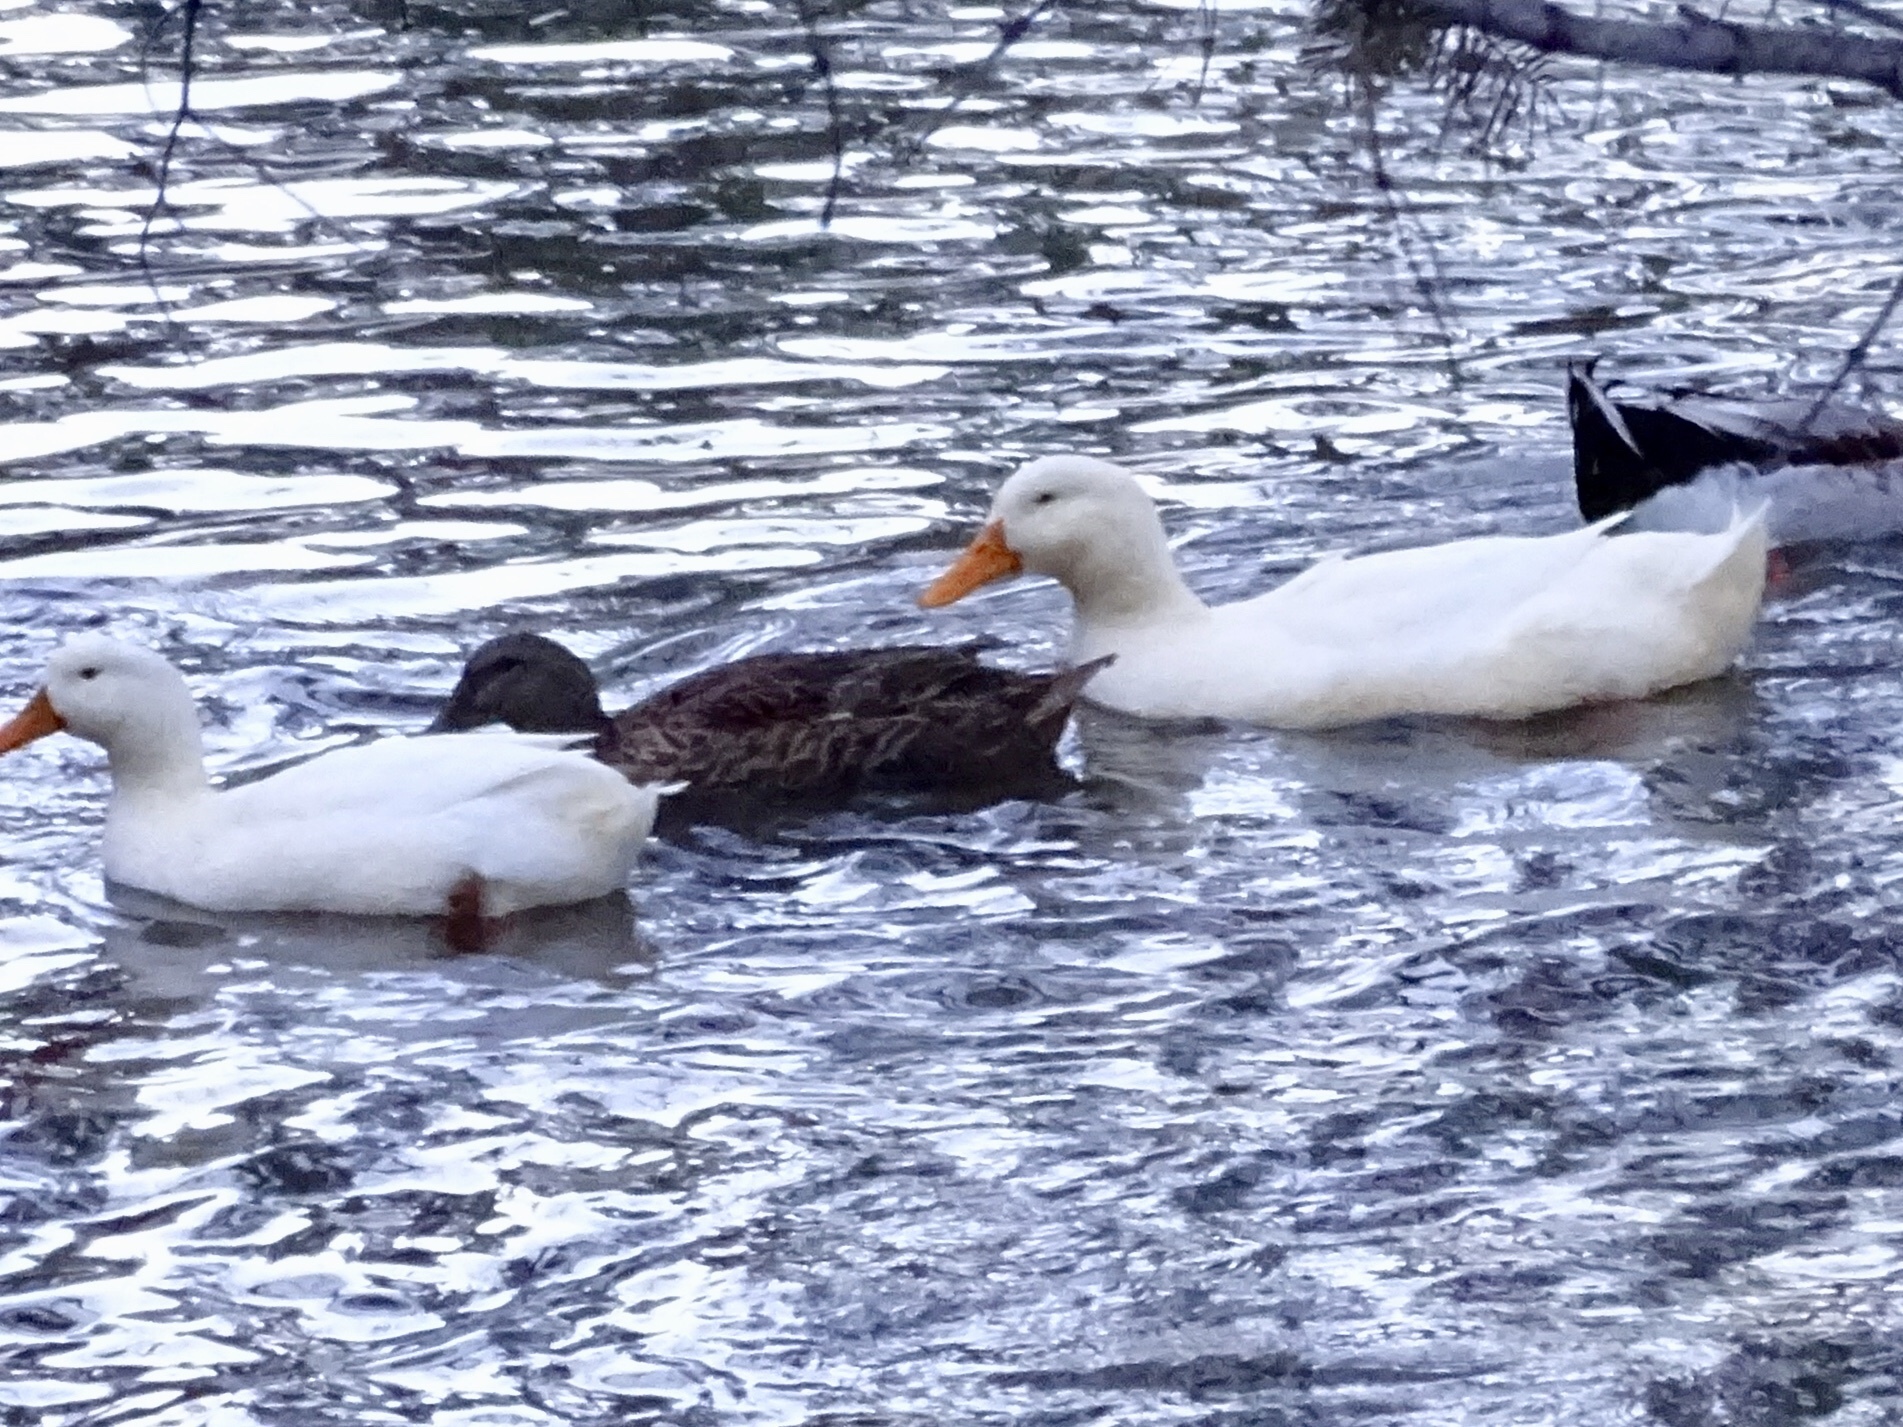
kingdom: Animalia
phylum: Chordata
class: Aves
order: Anseriformes
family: Anatidae
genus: Anas
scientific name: Anas platyrhynchos
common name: Mallard
